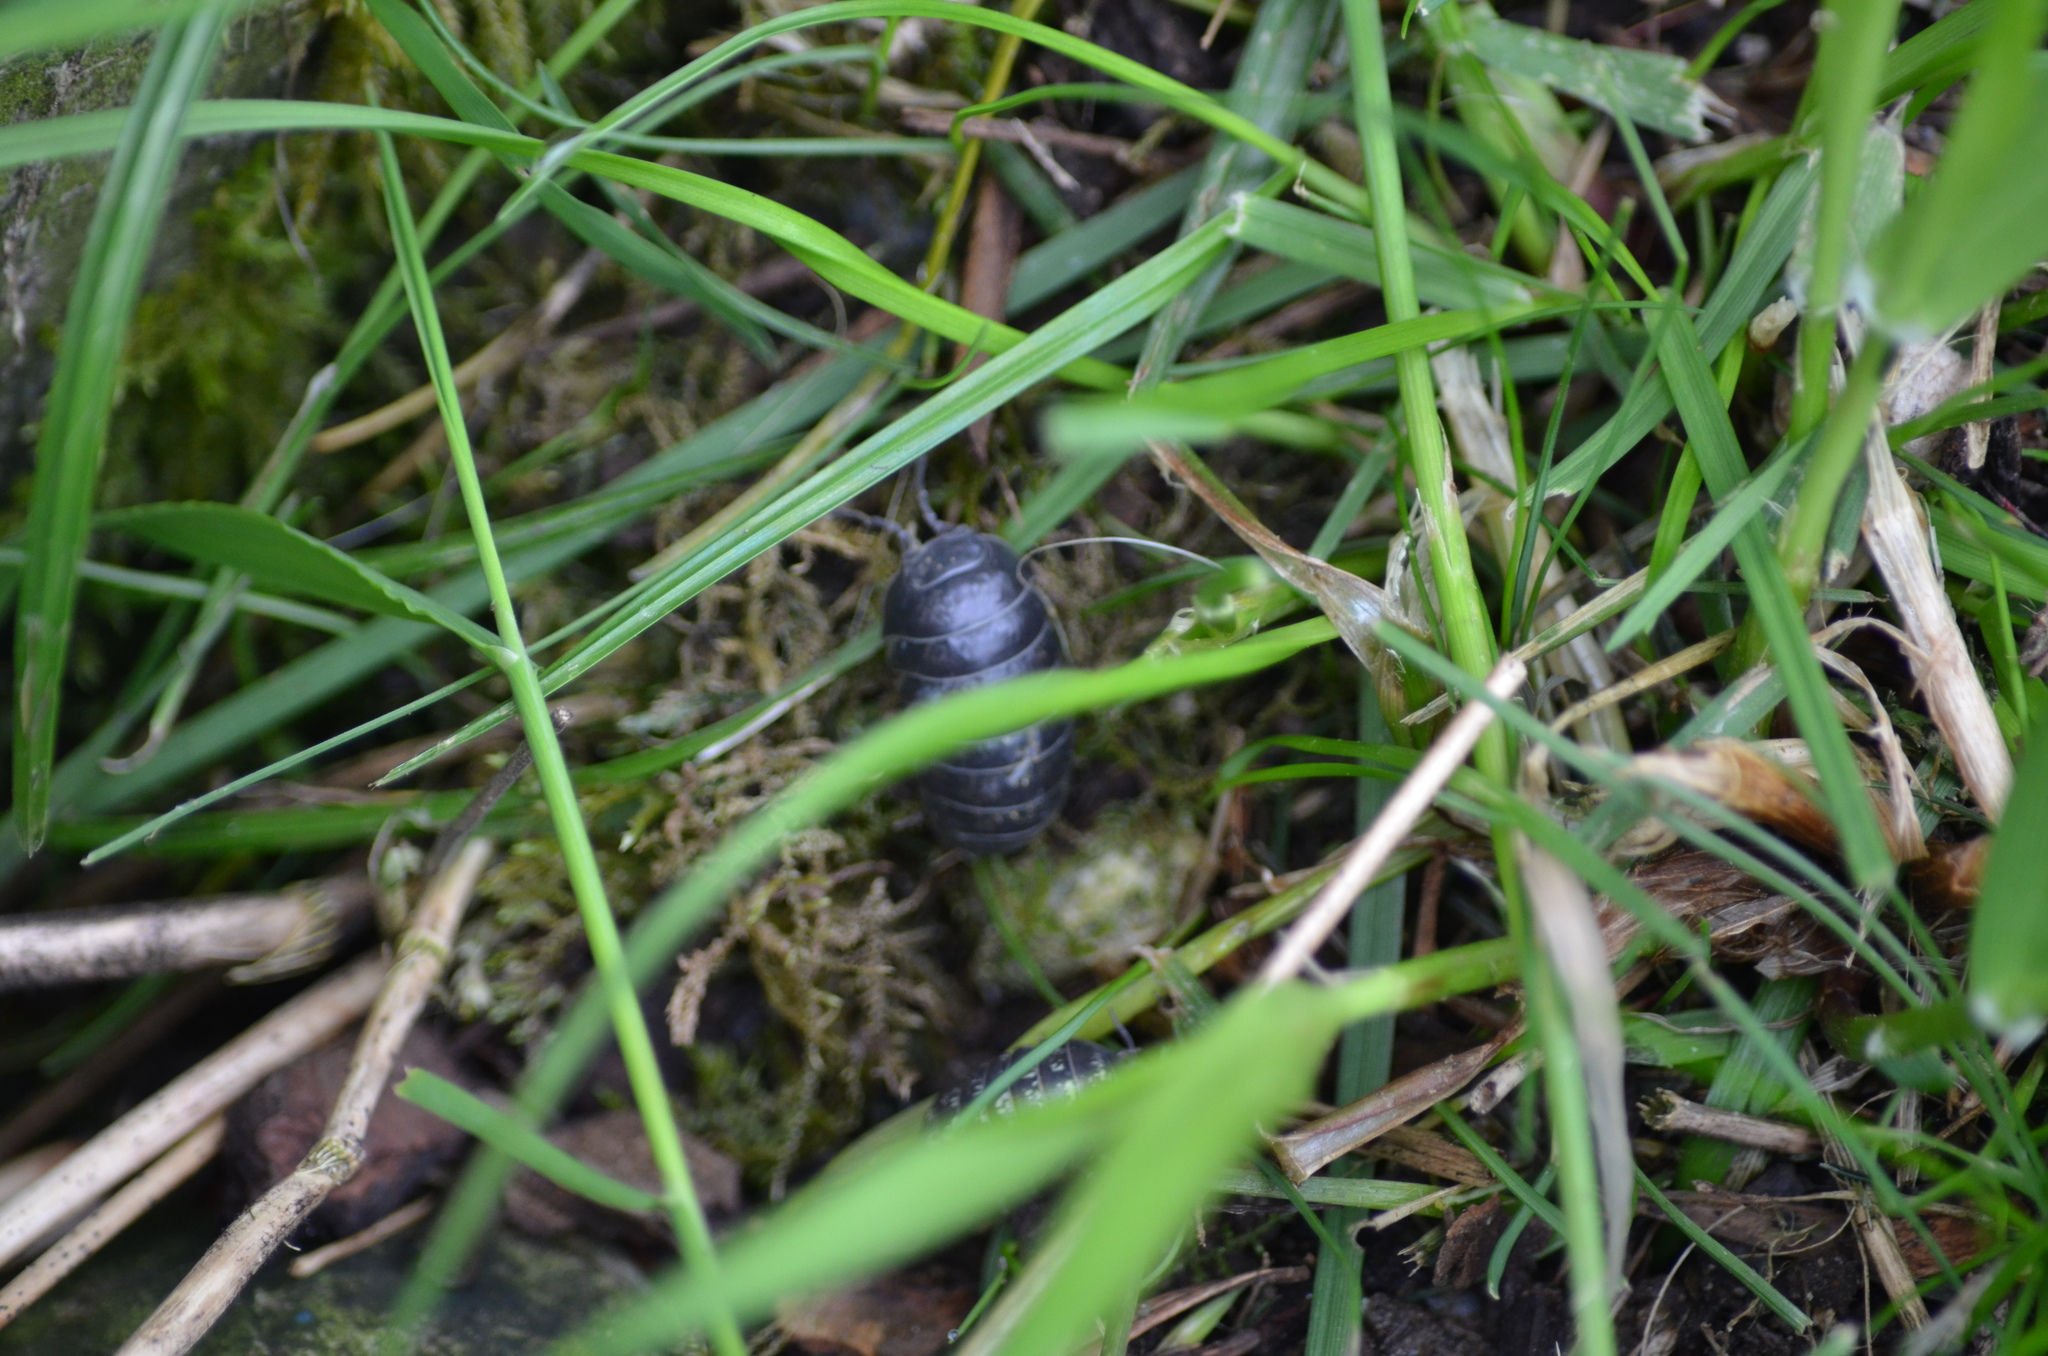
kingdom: Animalia
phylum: Arthropoda
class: Malacostraca
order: Isopoda
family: Armadillidiidae
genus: Armadillidium
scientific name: Armadillidium vulgare
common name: Common pill woodlouse
